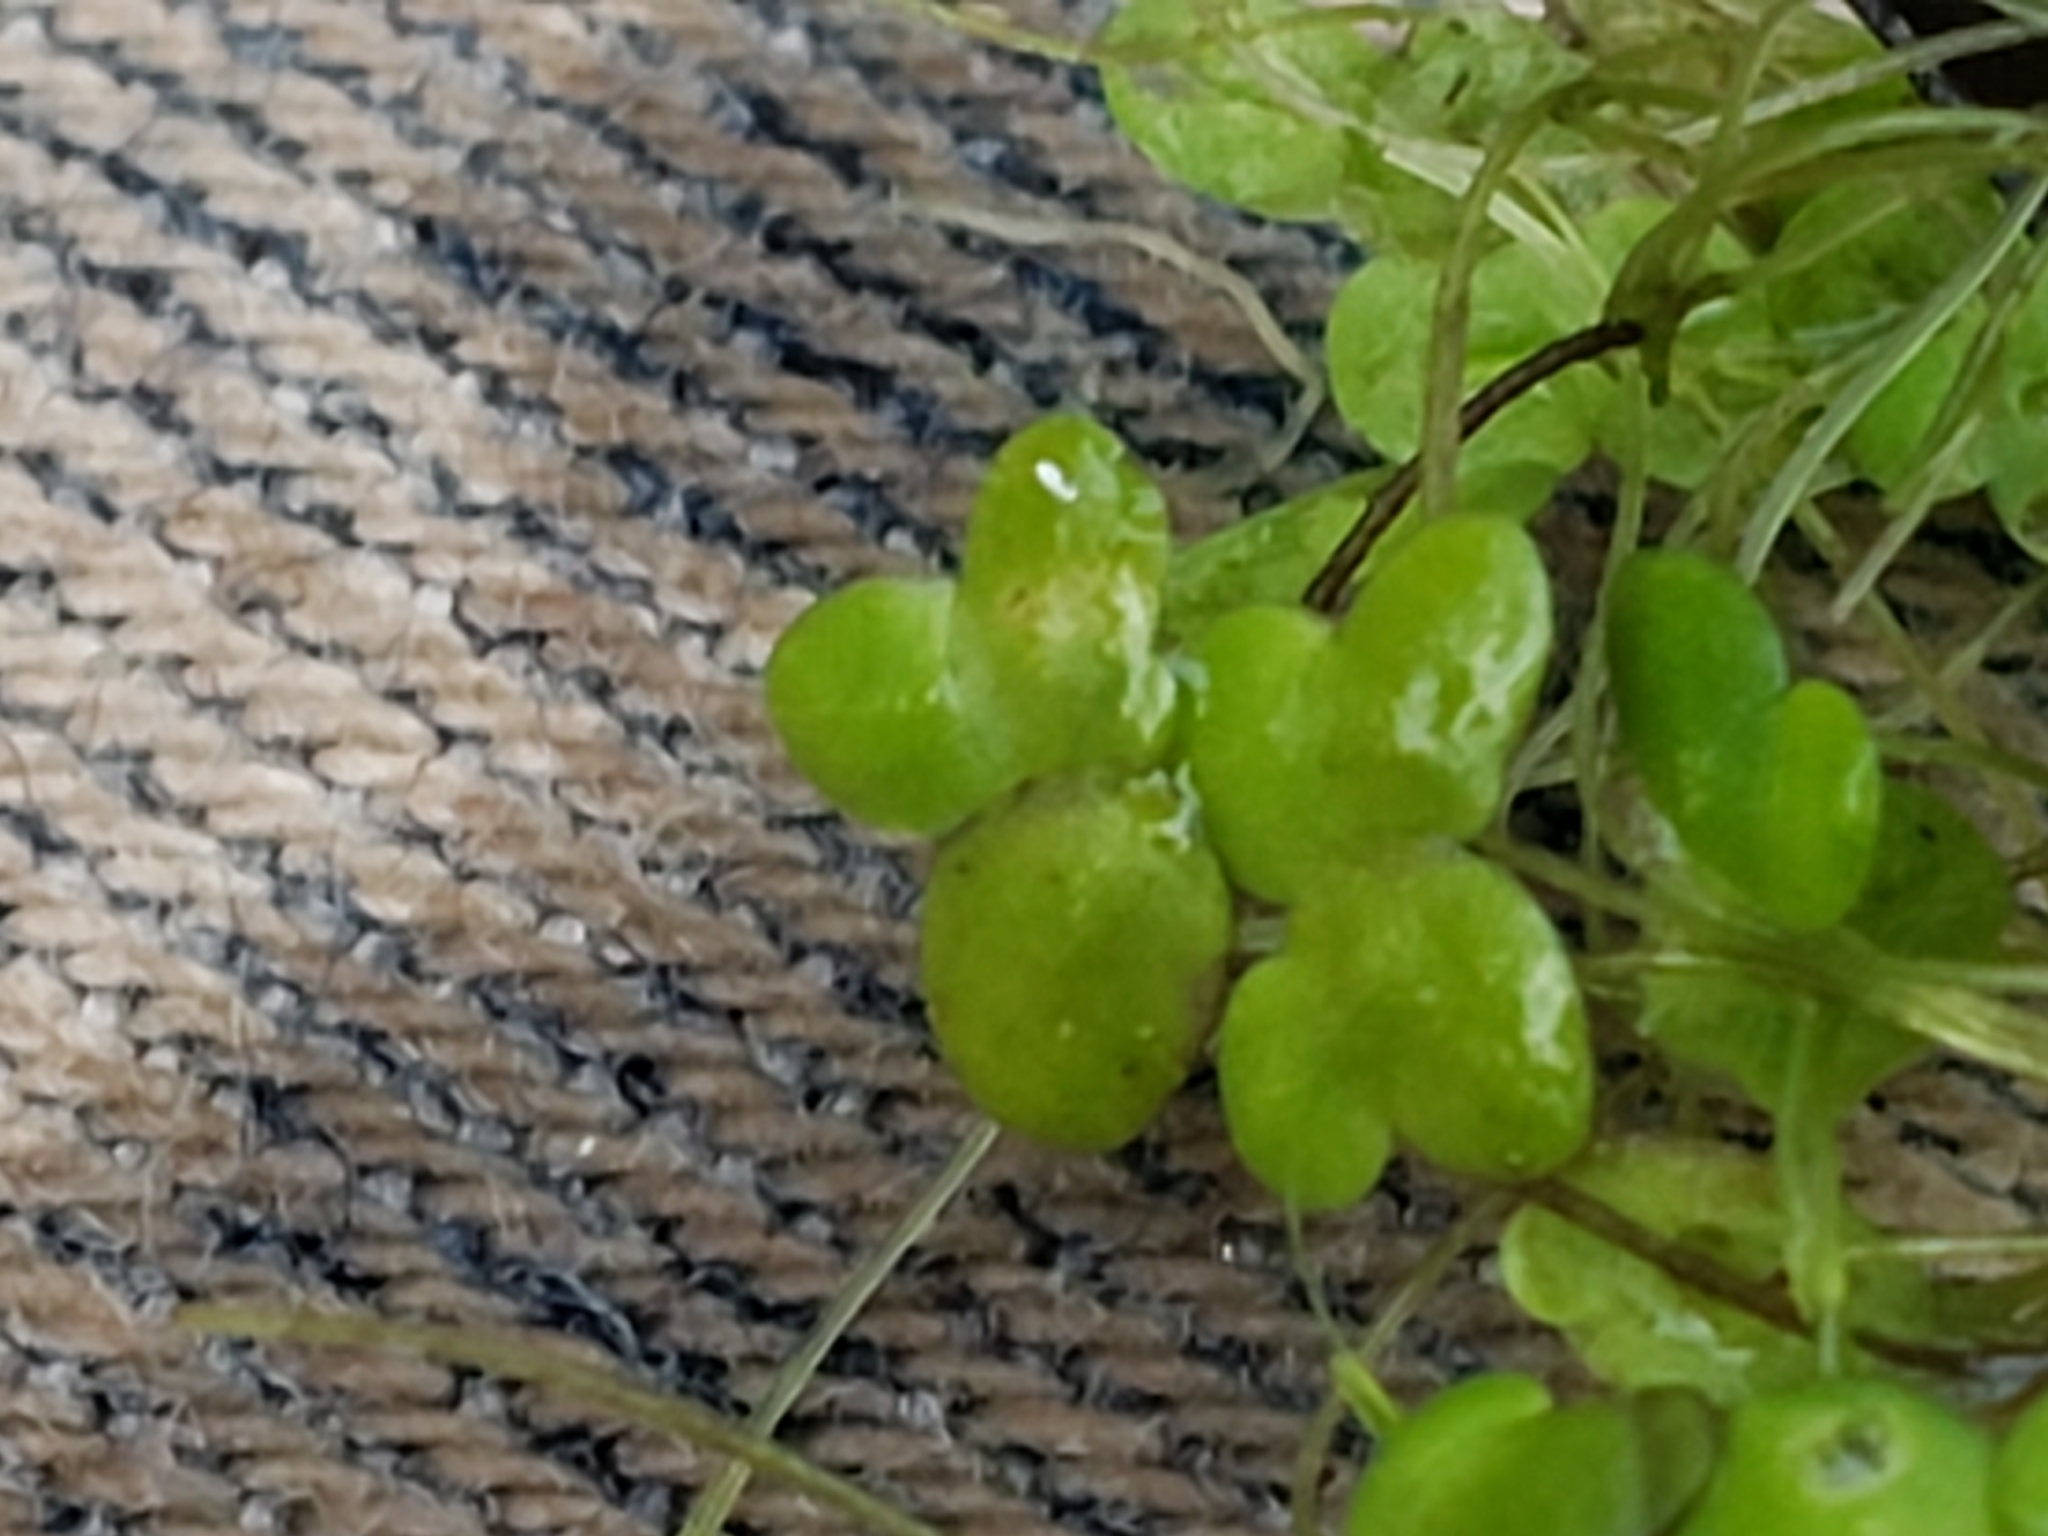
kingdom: Plantae
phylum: Tracheophyta
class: Liliopsida
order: Alismatales
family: Araceae
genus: Lemna
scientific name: Lemna minor
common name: Common duckweed
